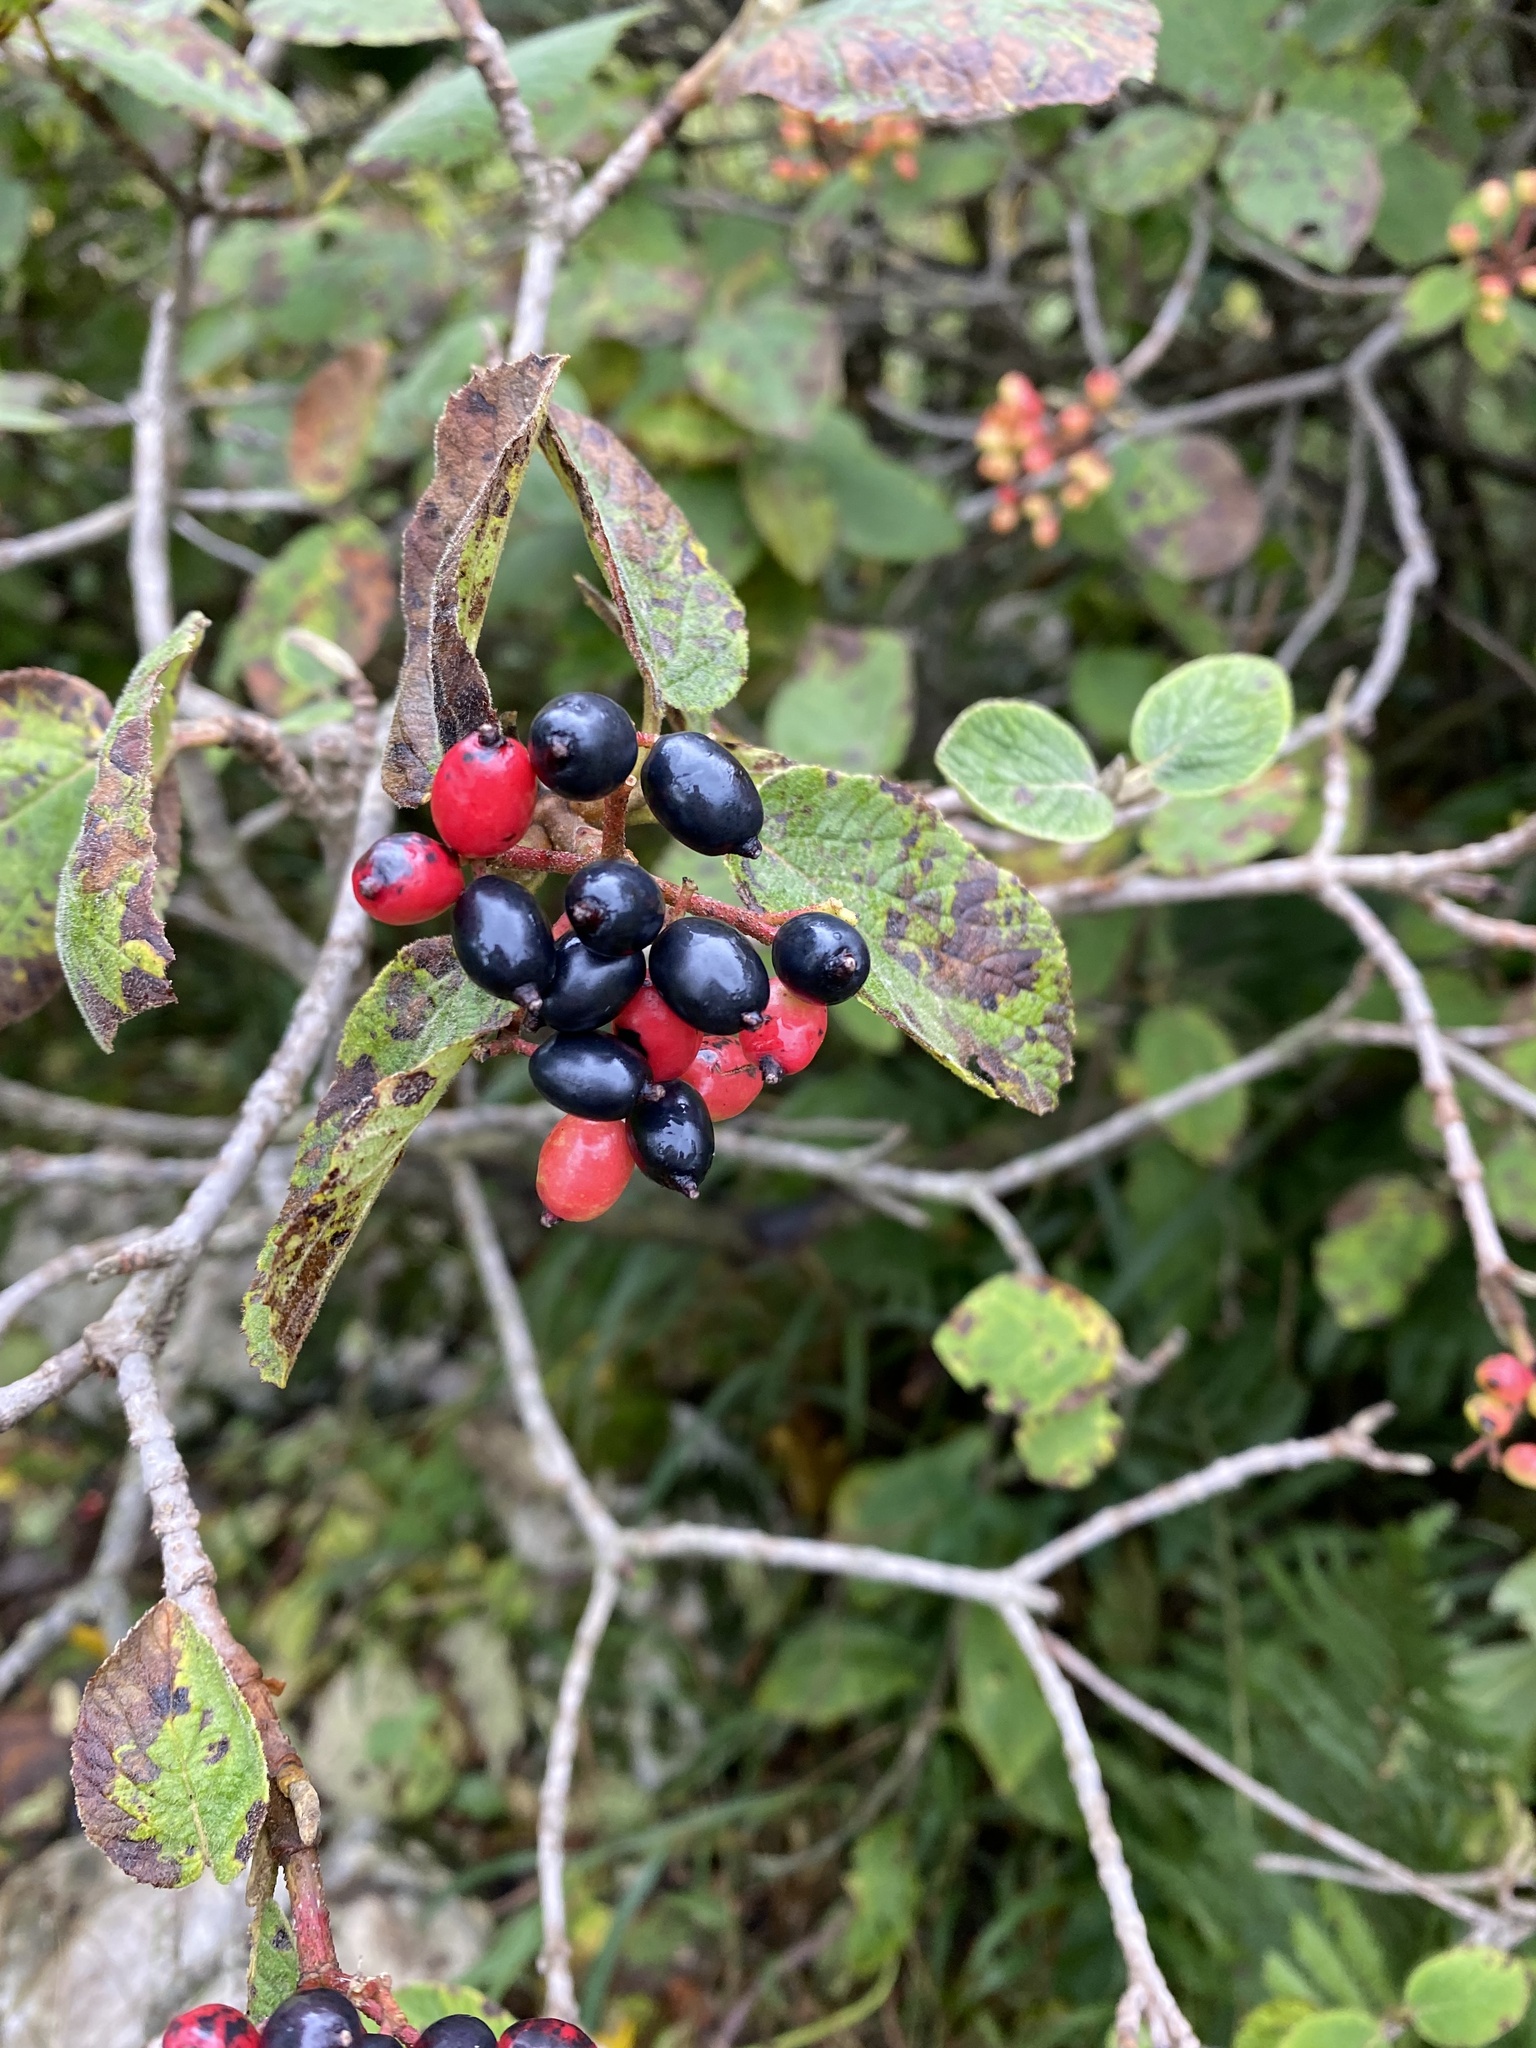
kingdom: Plantae
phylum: Tracheophyta
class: Magnoliopsida
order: Dipsacales
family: Viburnaceae
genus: Viburnum
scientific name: Viburnum lantana
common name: Wayfaring tree
